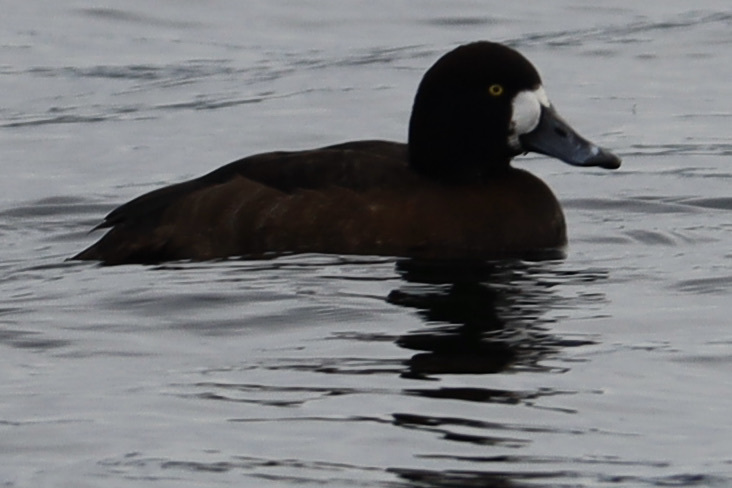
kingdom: Animalia
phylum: Chordata
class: Aves
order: Anseriformes
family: Anatidae
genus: Aythya
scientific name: Aythya marila
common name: Greater scaup
